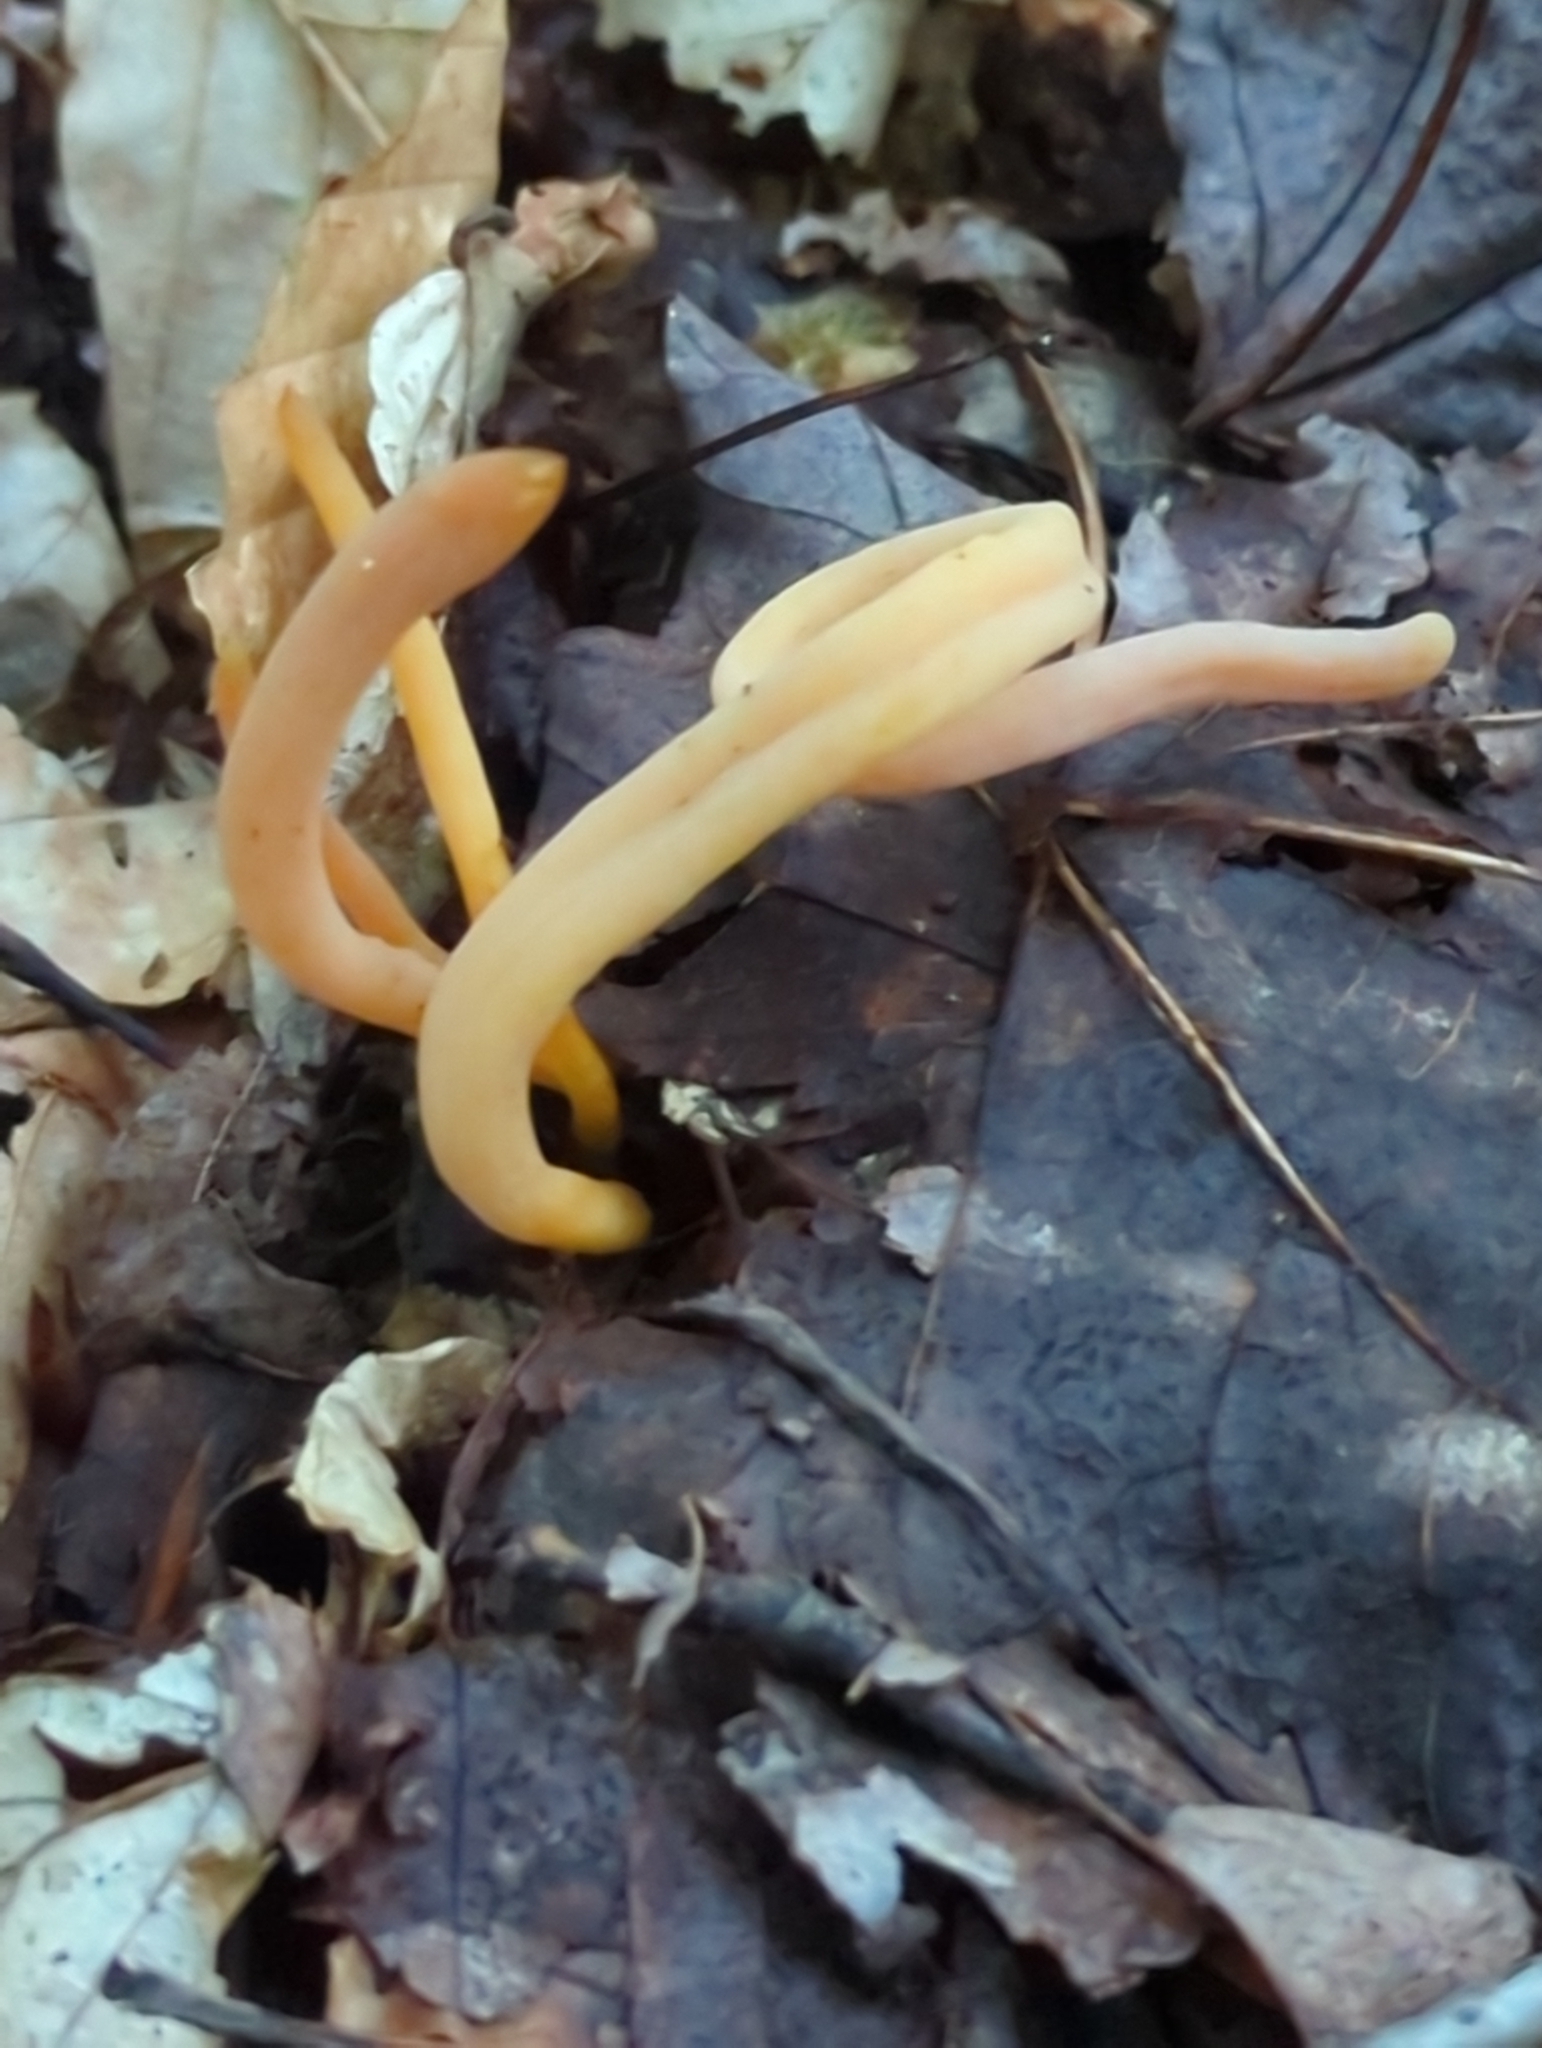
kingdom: Fungi
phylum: Basidiomycota
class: Agaricomycetes
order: Agaricales
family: Clavariaceae
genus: Clavulinopsis
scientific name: Clavulinopsis appalachiensis
